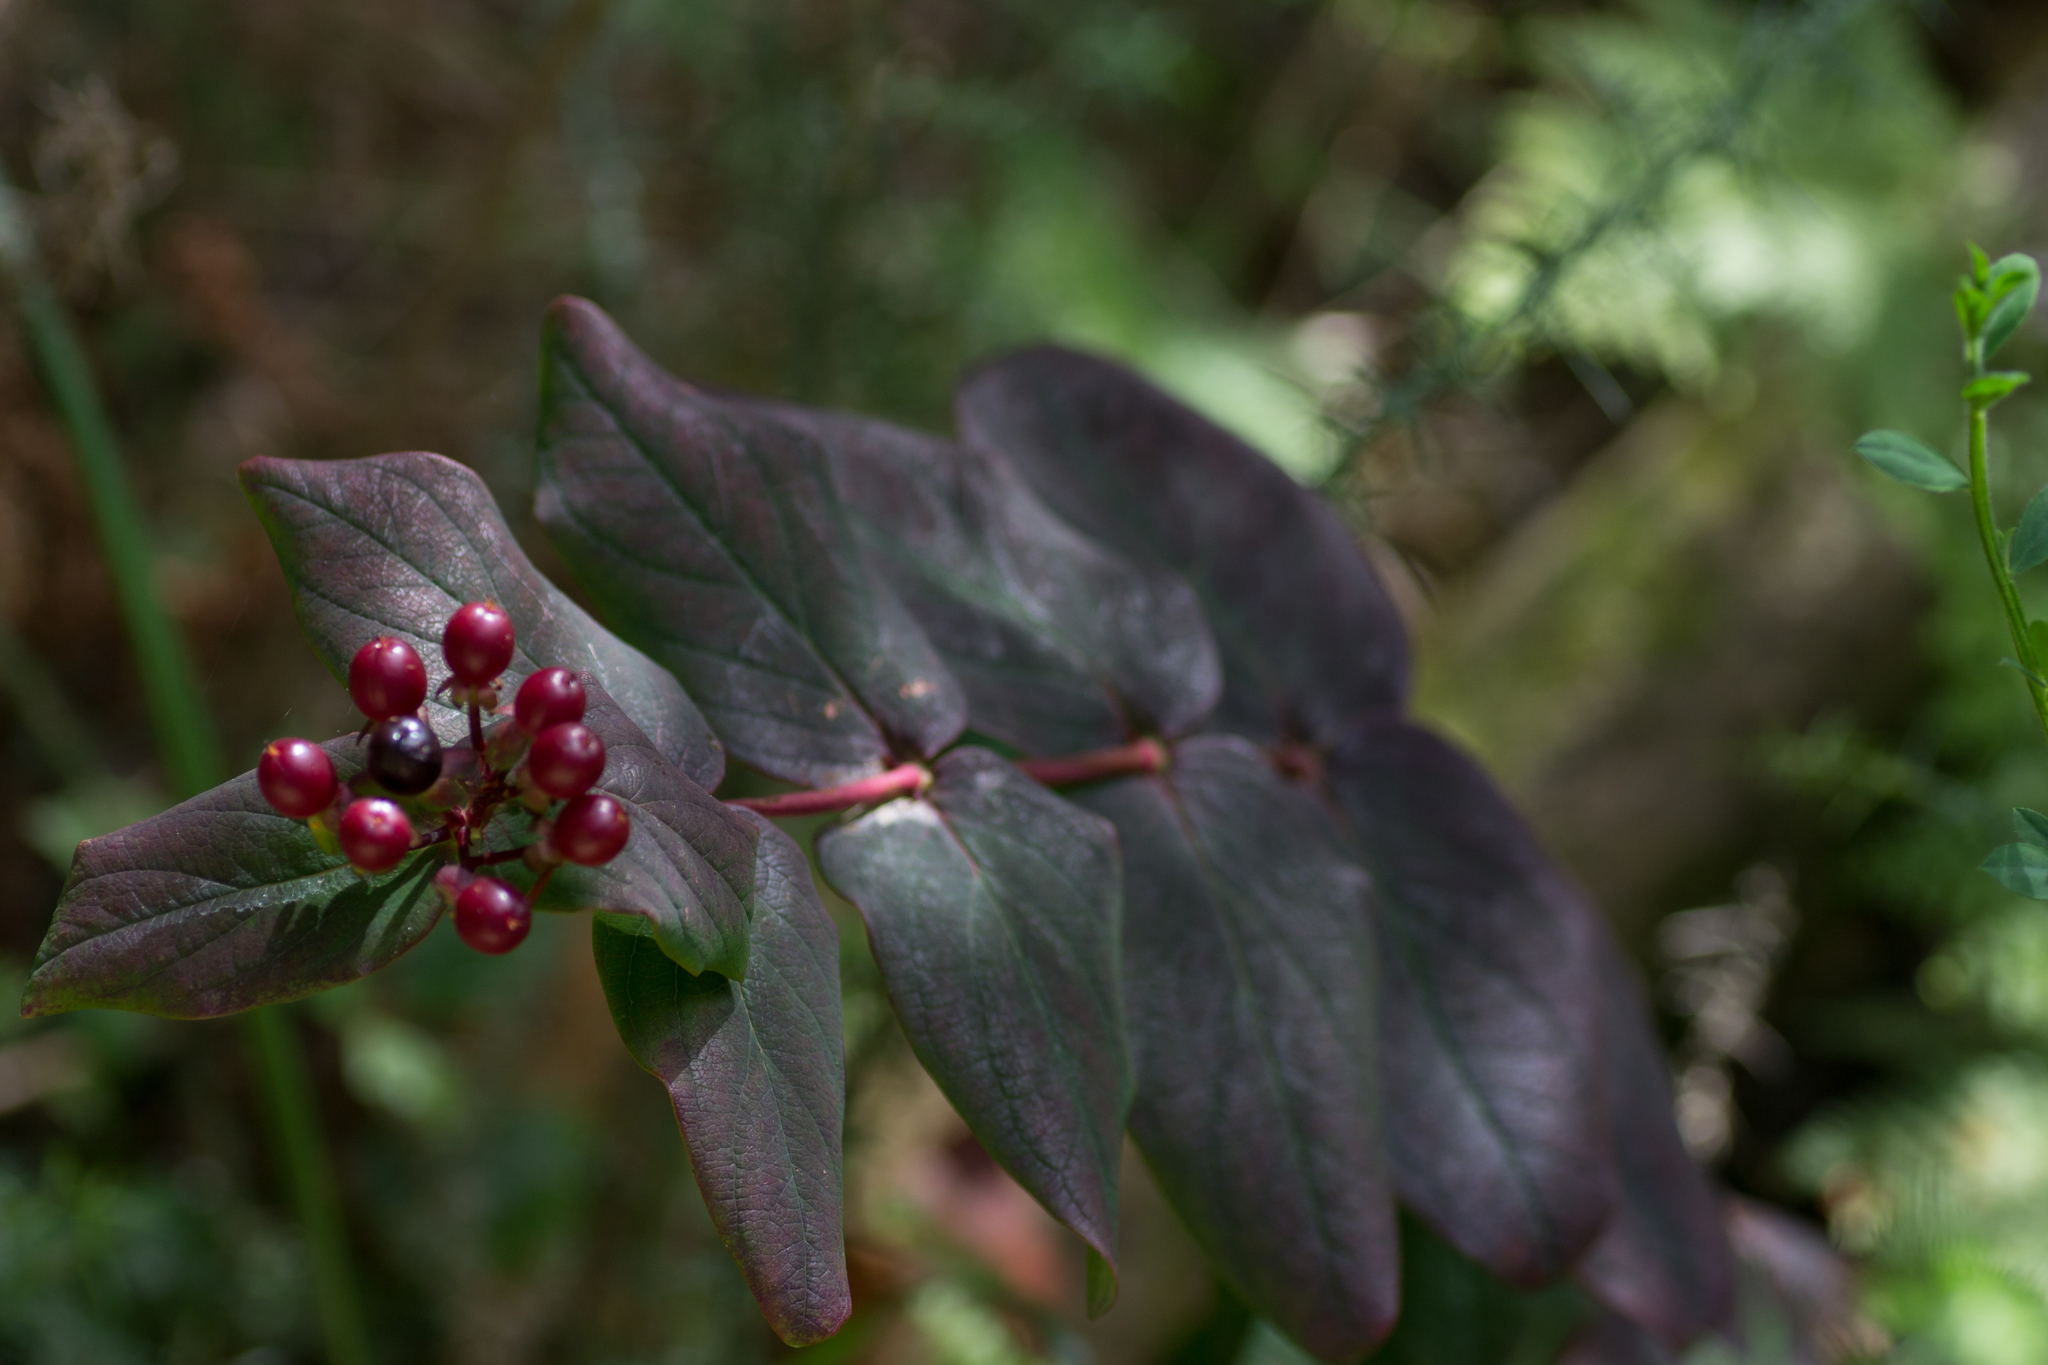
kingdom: Plantae
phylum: Tracheophyta
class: Magnoliopsida
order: Malpighiales
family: Hypericaceae
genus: Hypericum
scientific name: Hypericum androsaemum
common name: Sweet-amber
